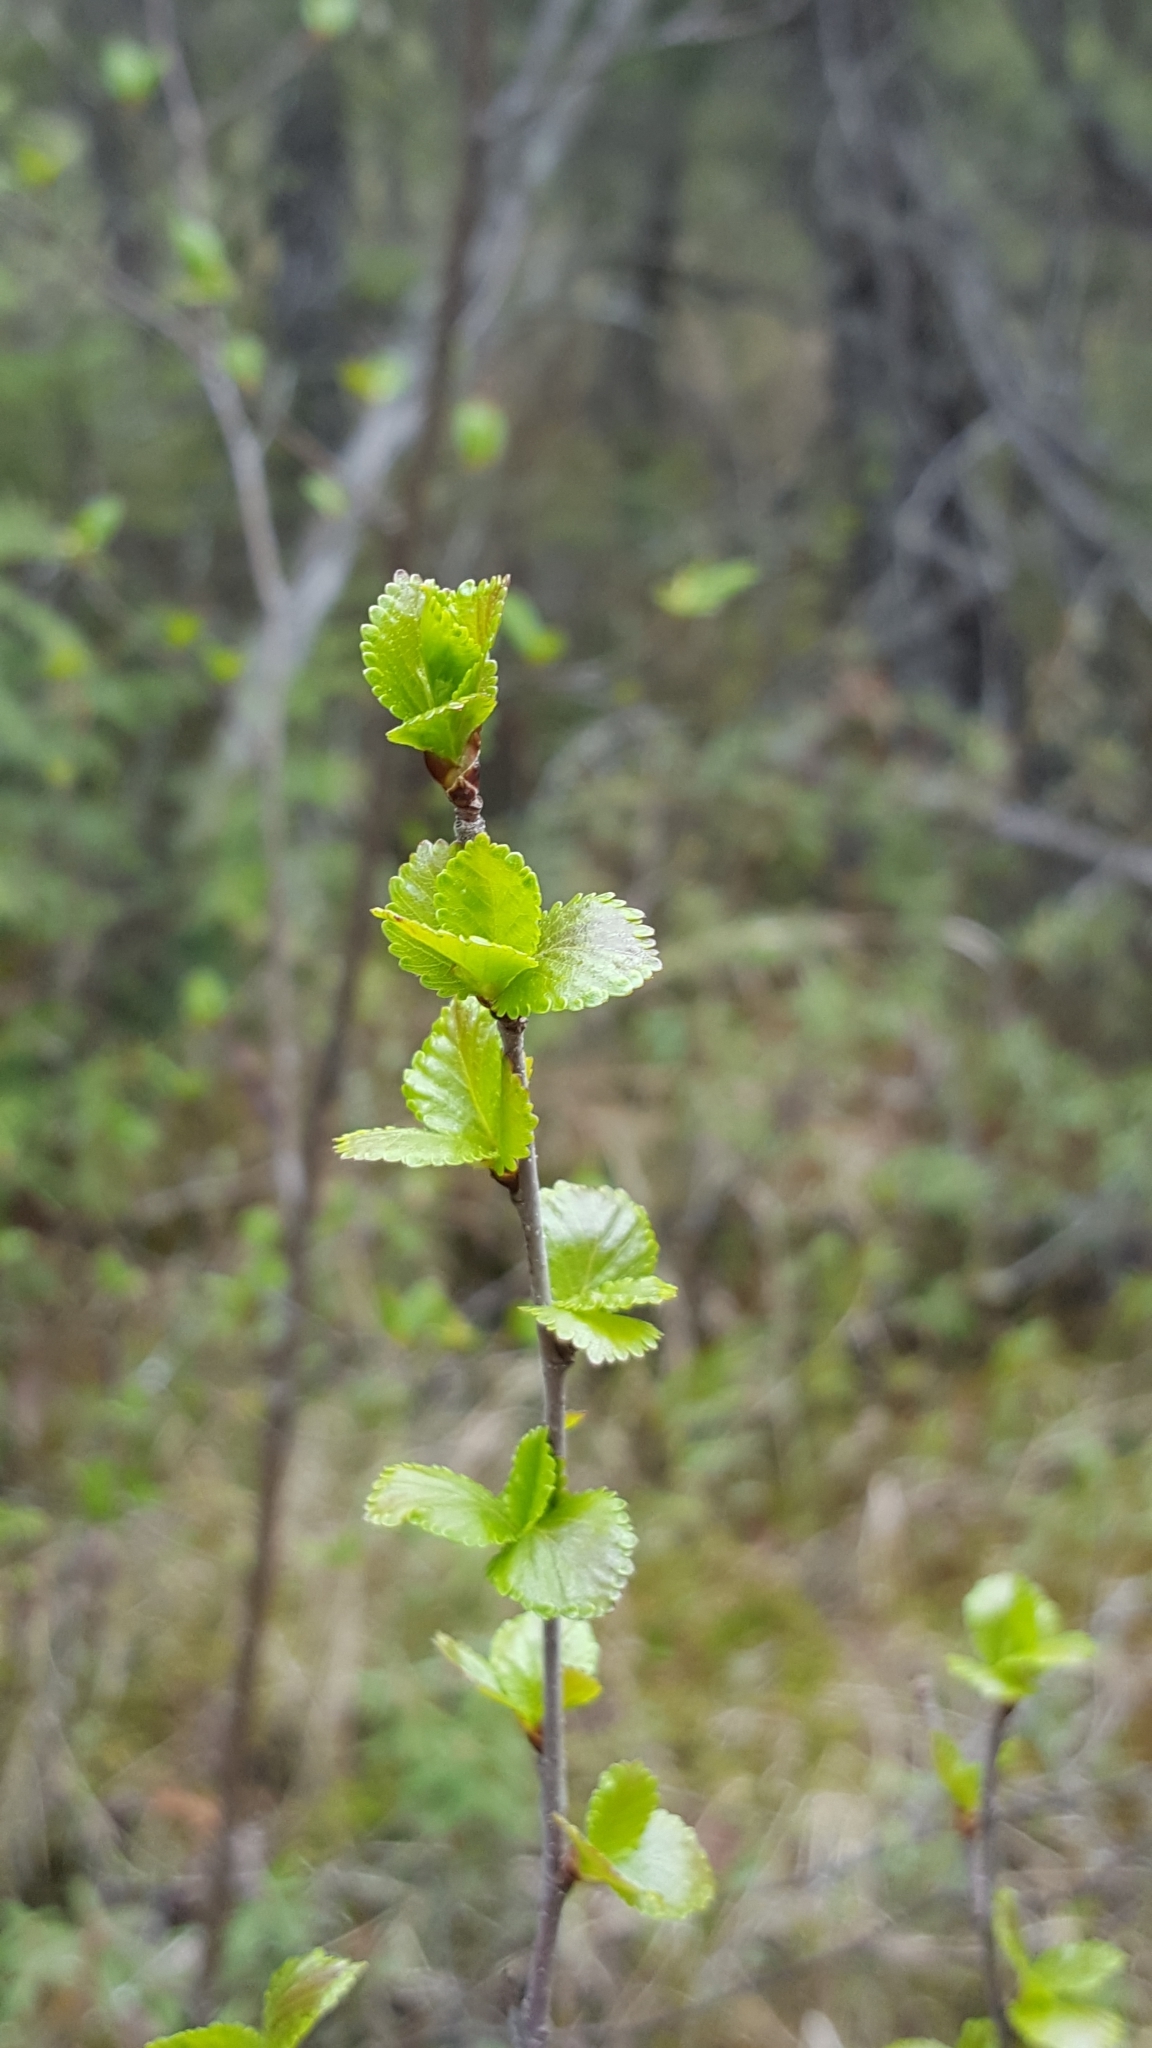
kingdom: Plantae
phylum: Tracheophyta
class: Magnoliopsida
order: Fagales
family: Betulaceae
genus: Betula
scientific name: Betula pumila
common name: Bog birch
